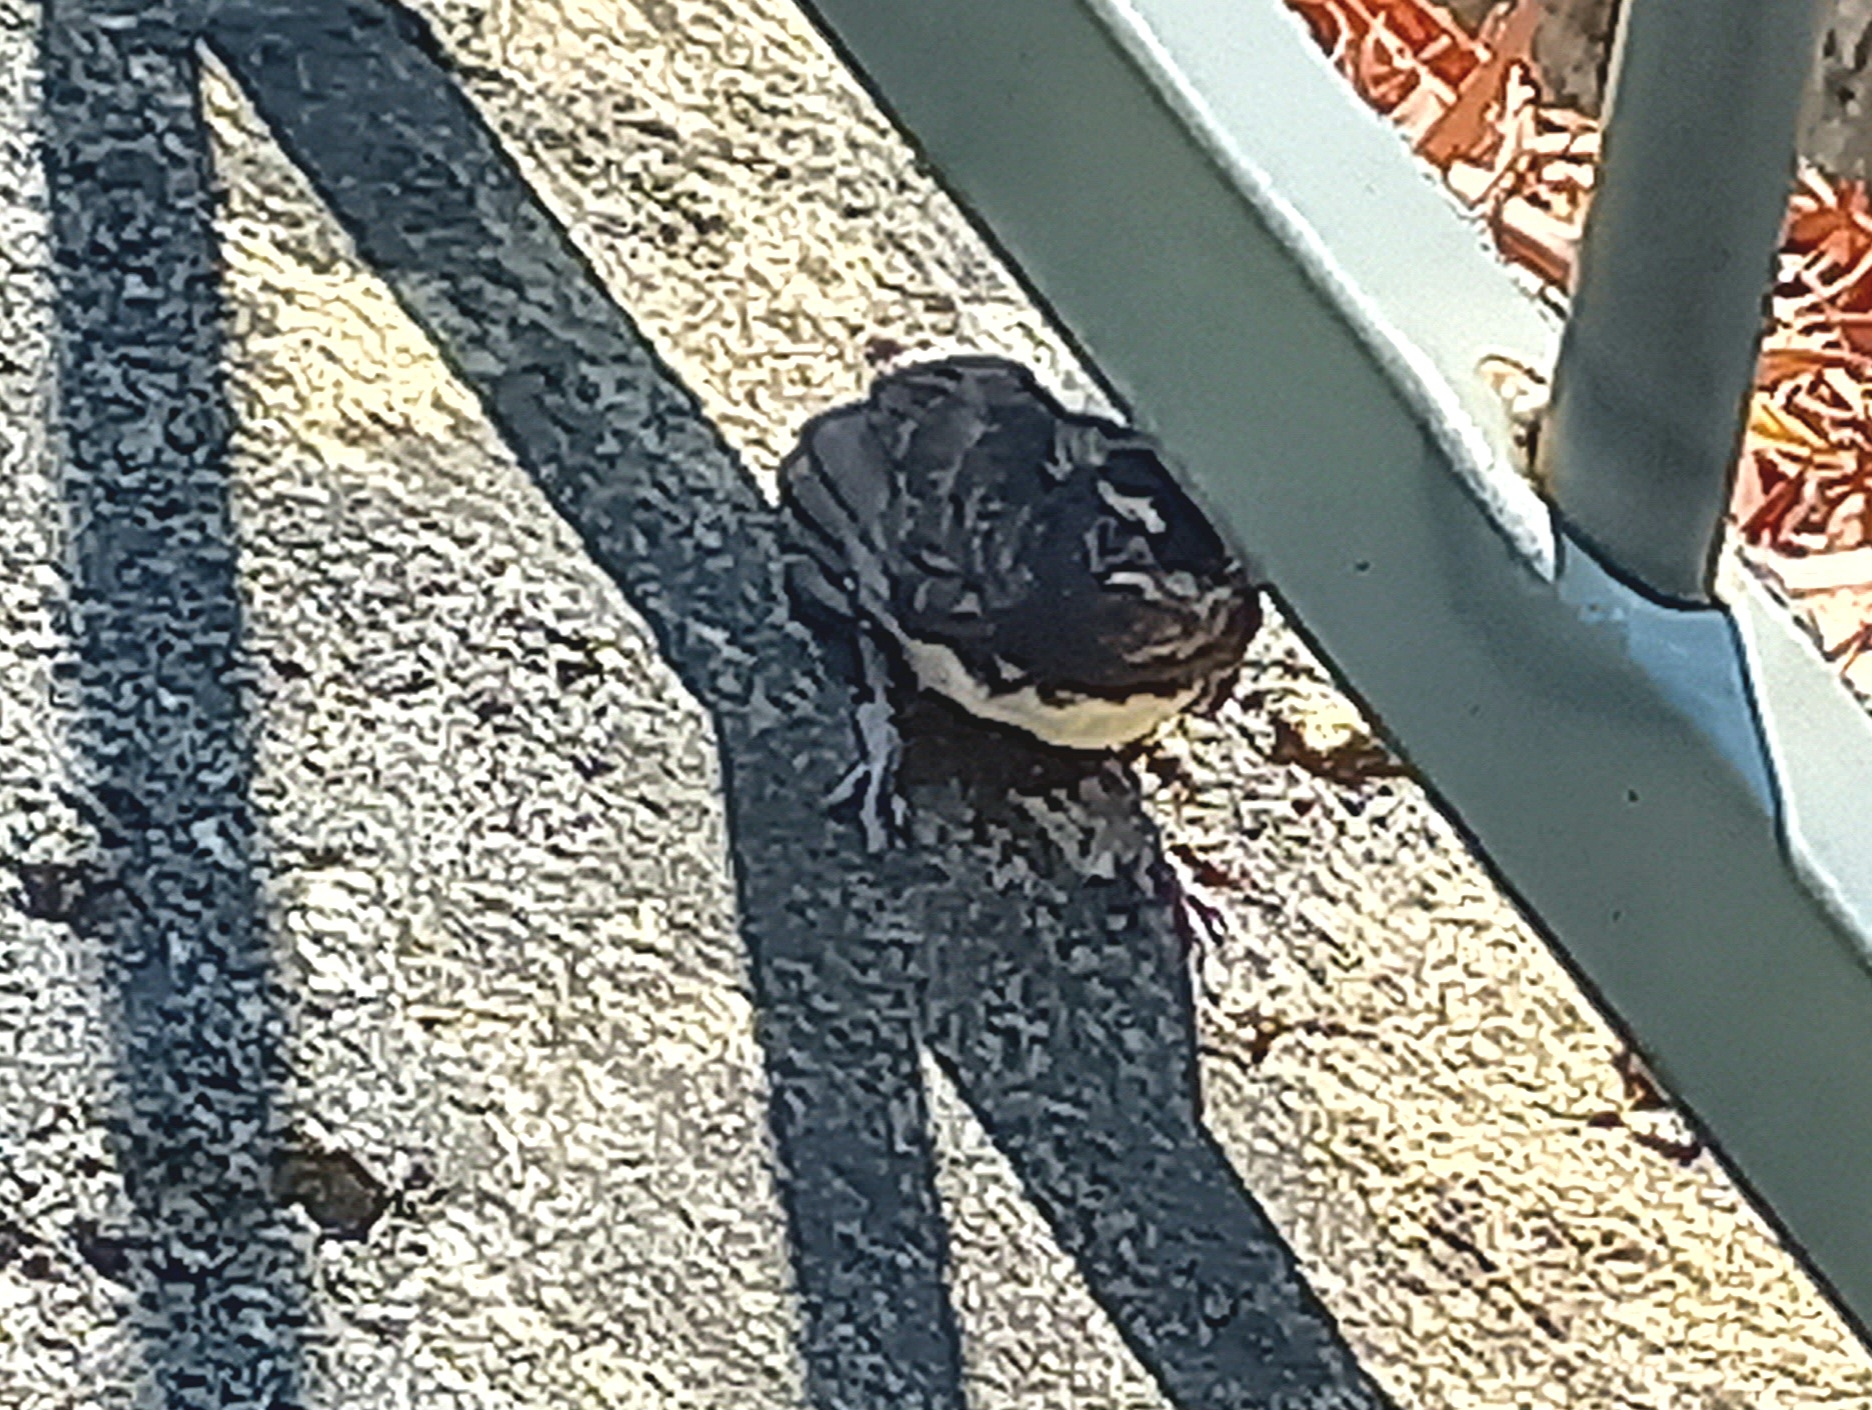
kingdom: Animalia
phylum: Chordata
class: Aves
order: Passeriformes
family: Rhipiduridae
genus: Rhipidura
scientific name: Rhipidura leucophrys
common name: Willie wagtail
